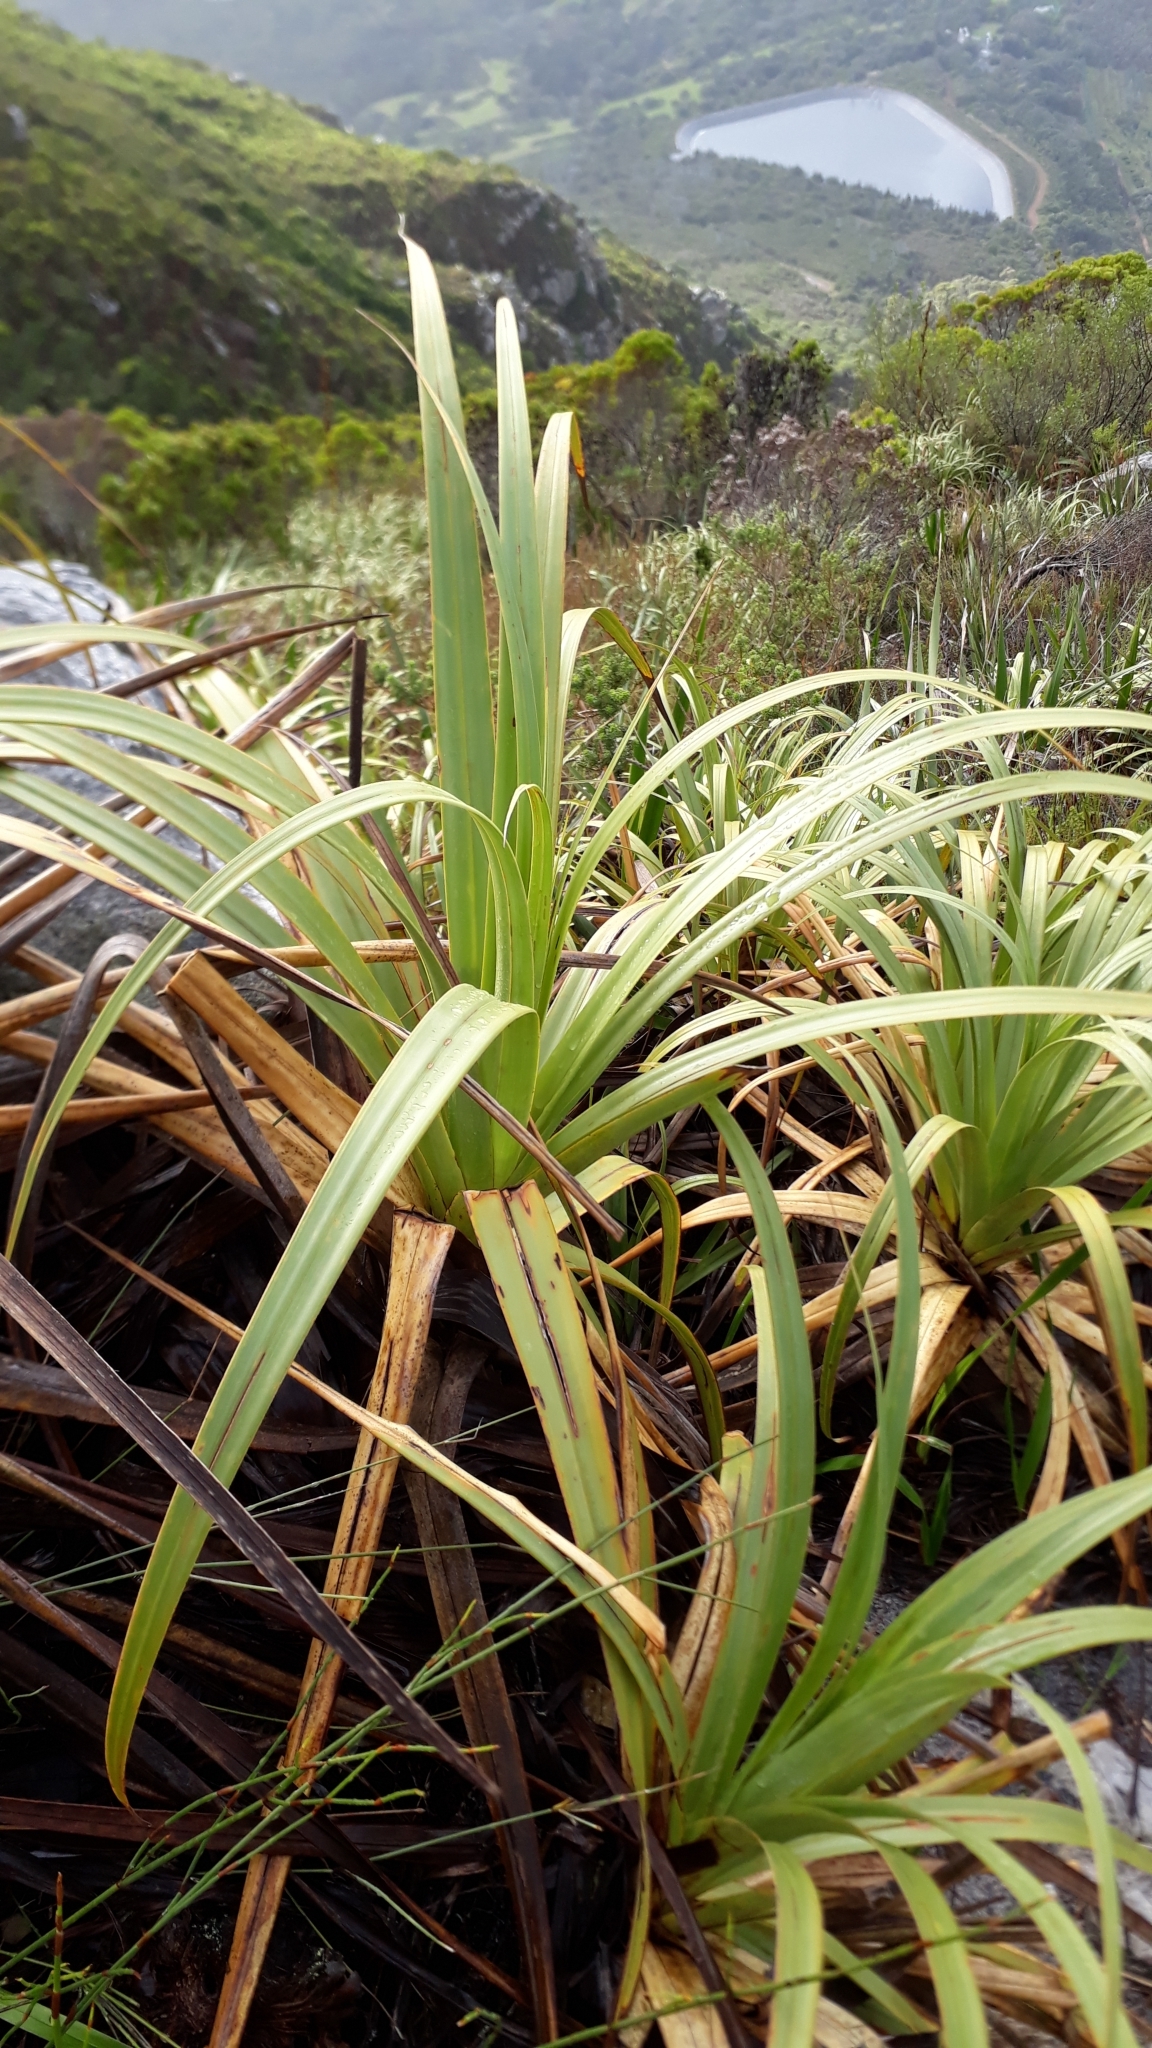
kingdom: Plantae
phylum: Tracheophyta
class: Liliopsida
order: Poales
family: Cyperaceae
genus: Tetraria
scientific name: Tetraria thermalis
